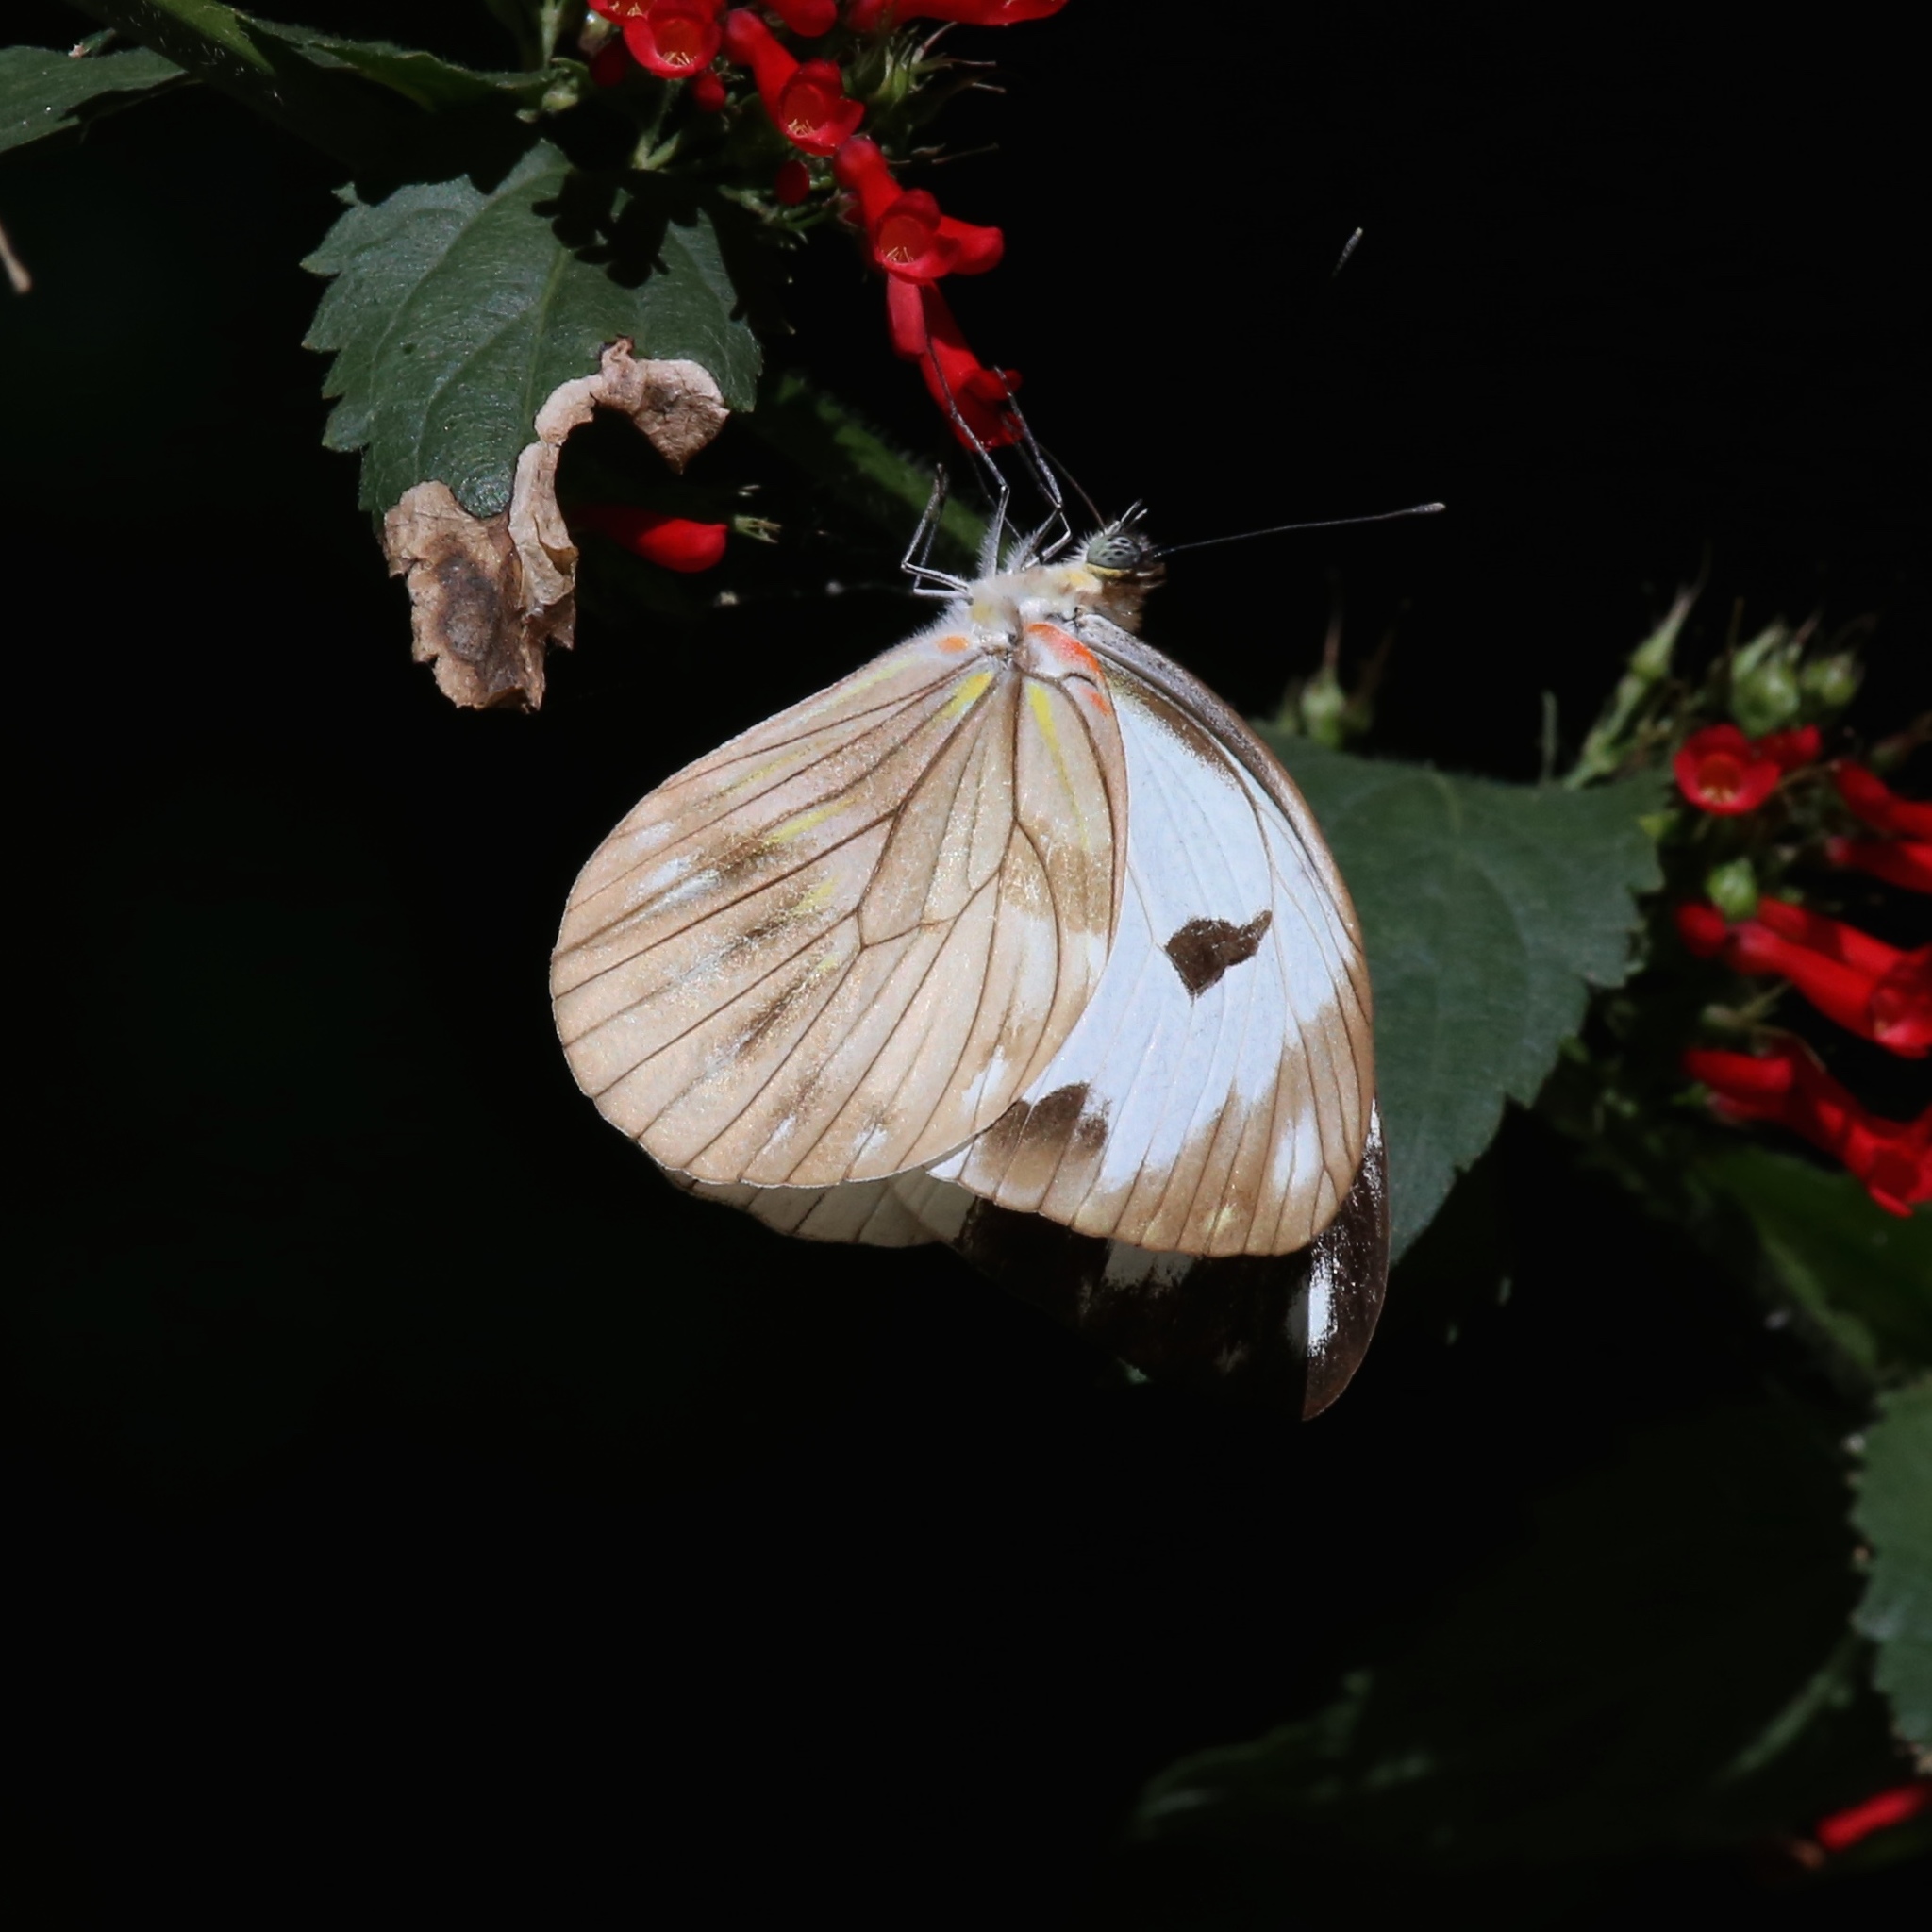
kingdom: Animalia
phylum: Arthropoda
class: Insecta
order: Lepidoptera
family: Pieridae
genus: Pieriballia
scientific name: Pieriballia viardi
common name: Painted white
